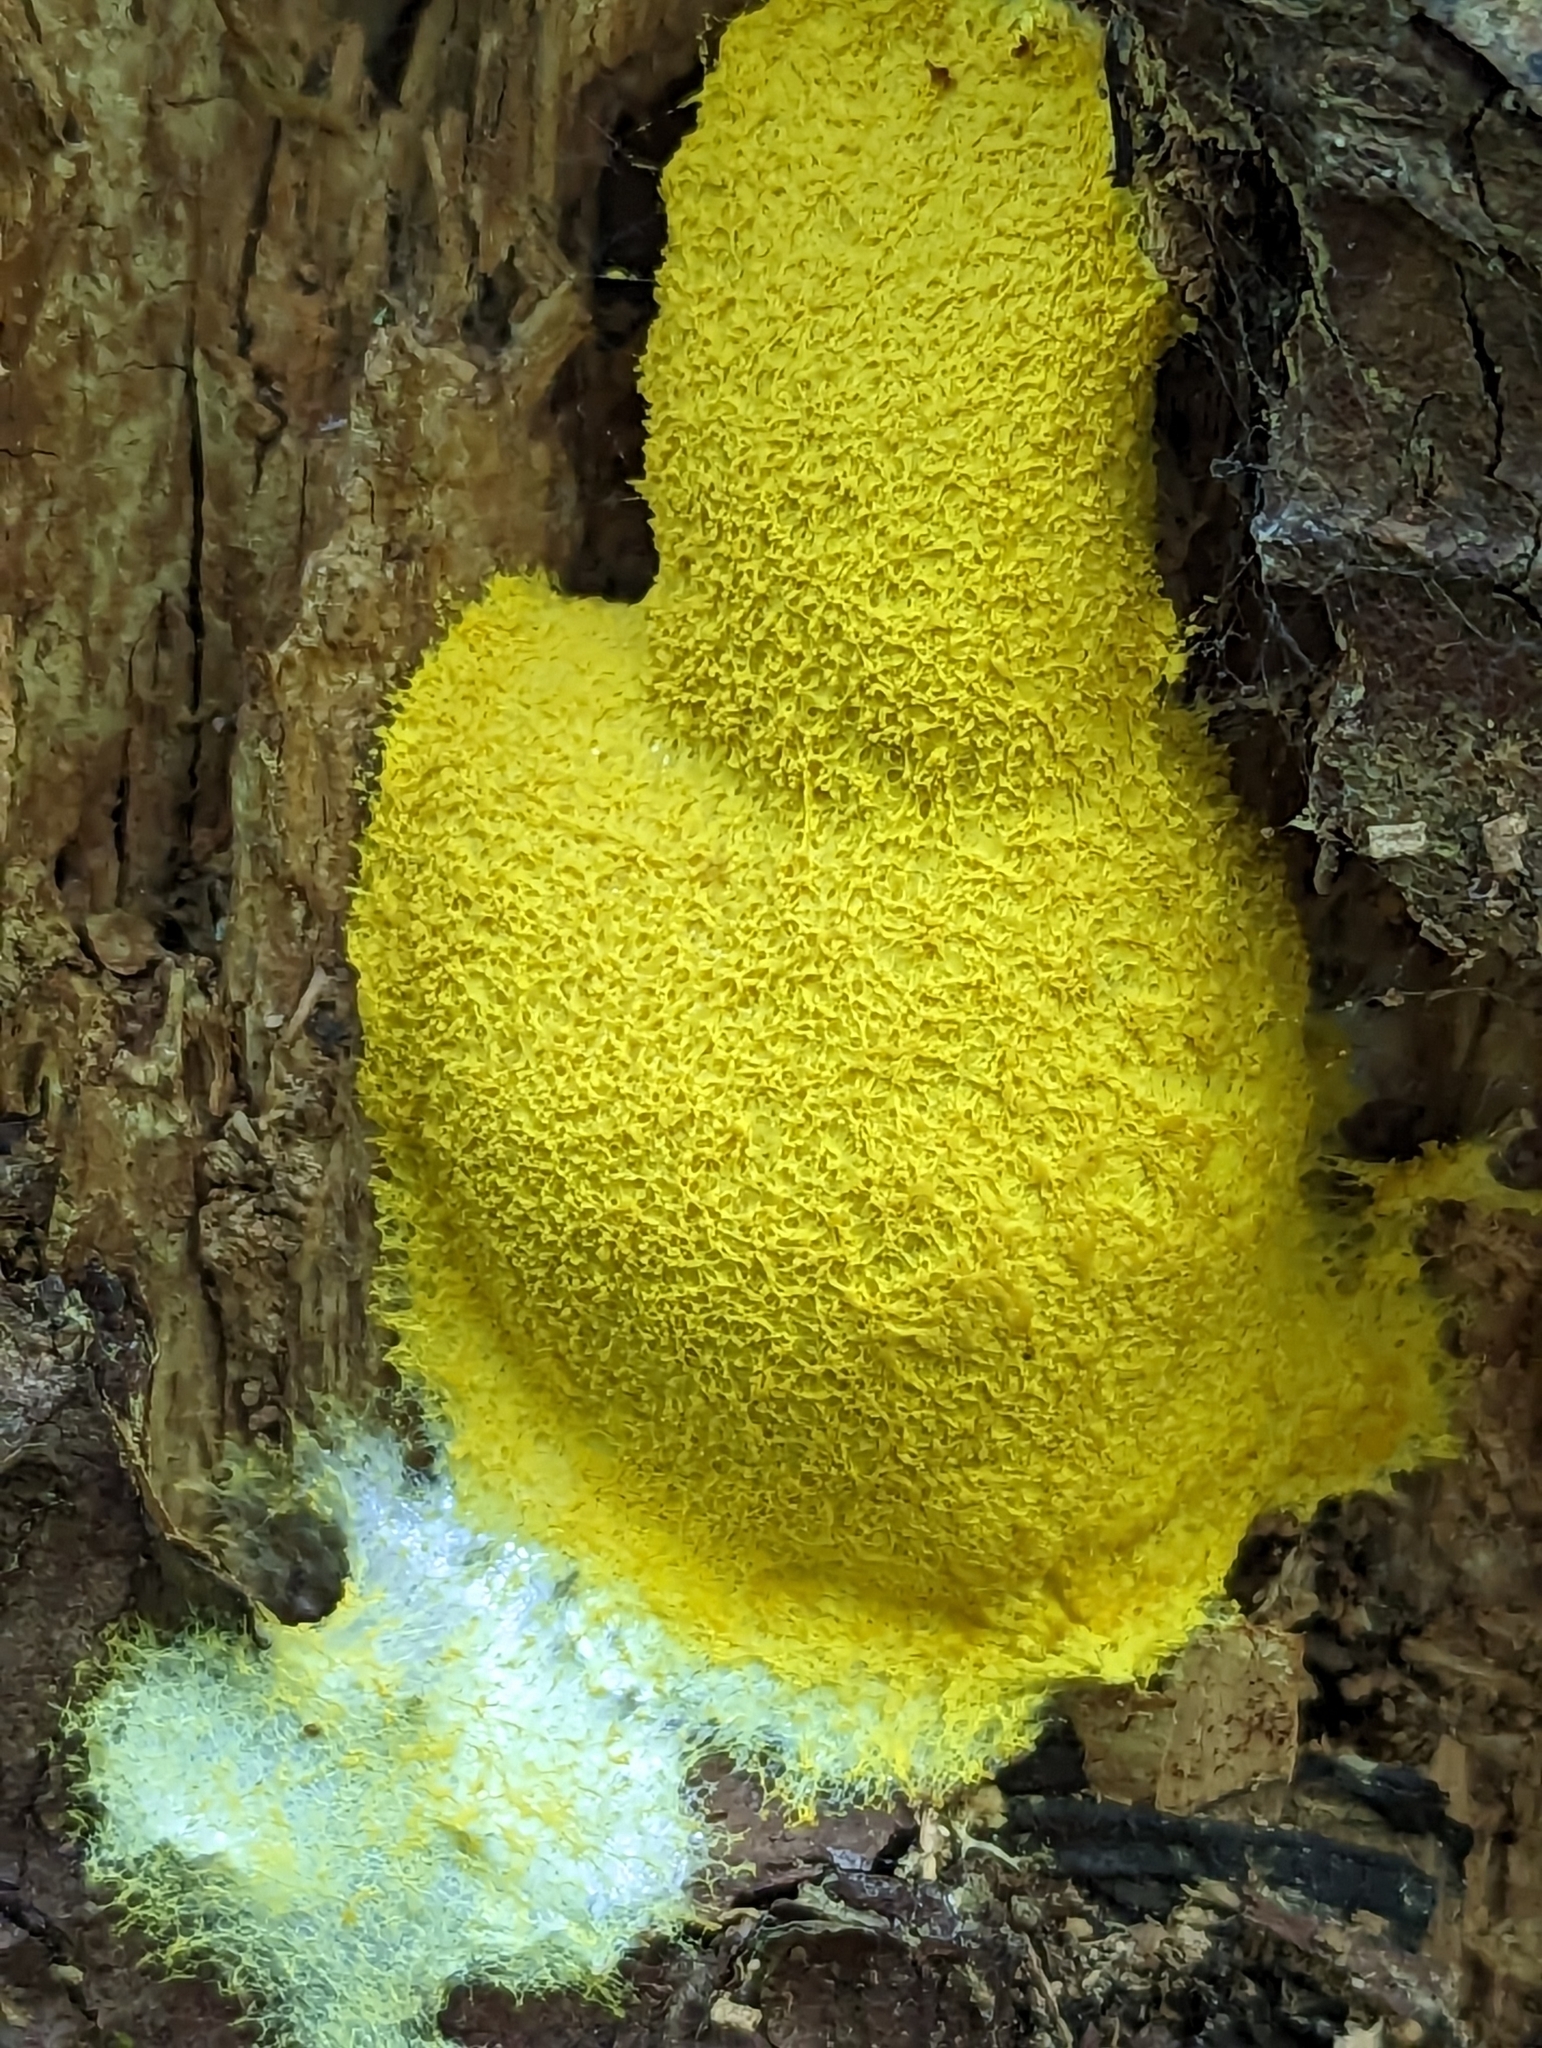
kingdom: Protozoa
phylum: Mycetozoa
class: Myxomycetes
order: Physarales
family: Physaraceae
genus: Fuligo
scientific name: Fuligo septica
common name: Dog vomit slime mold
